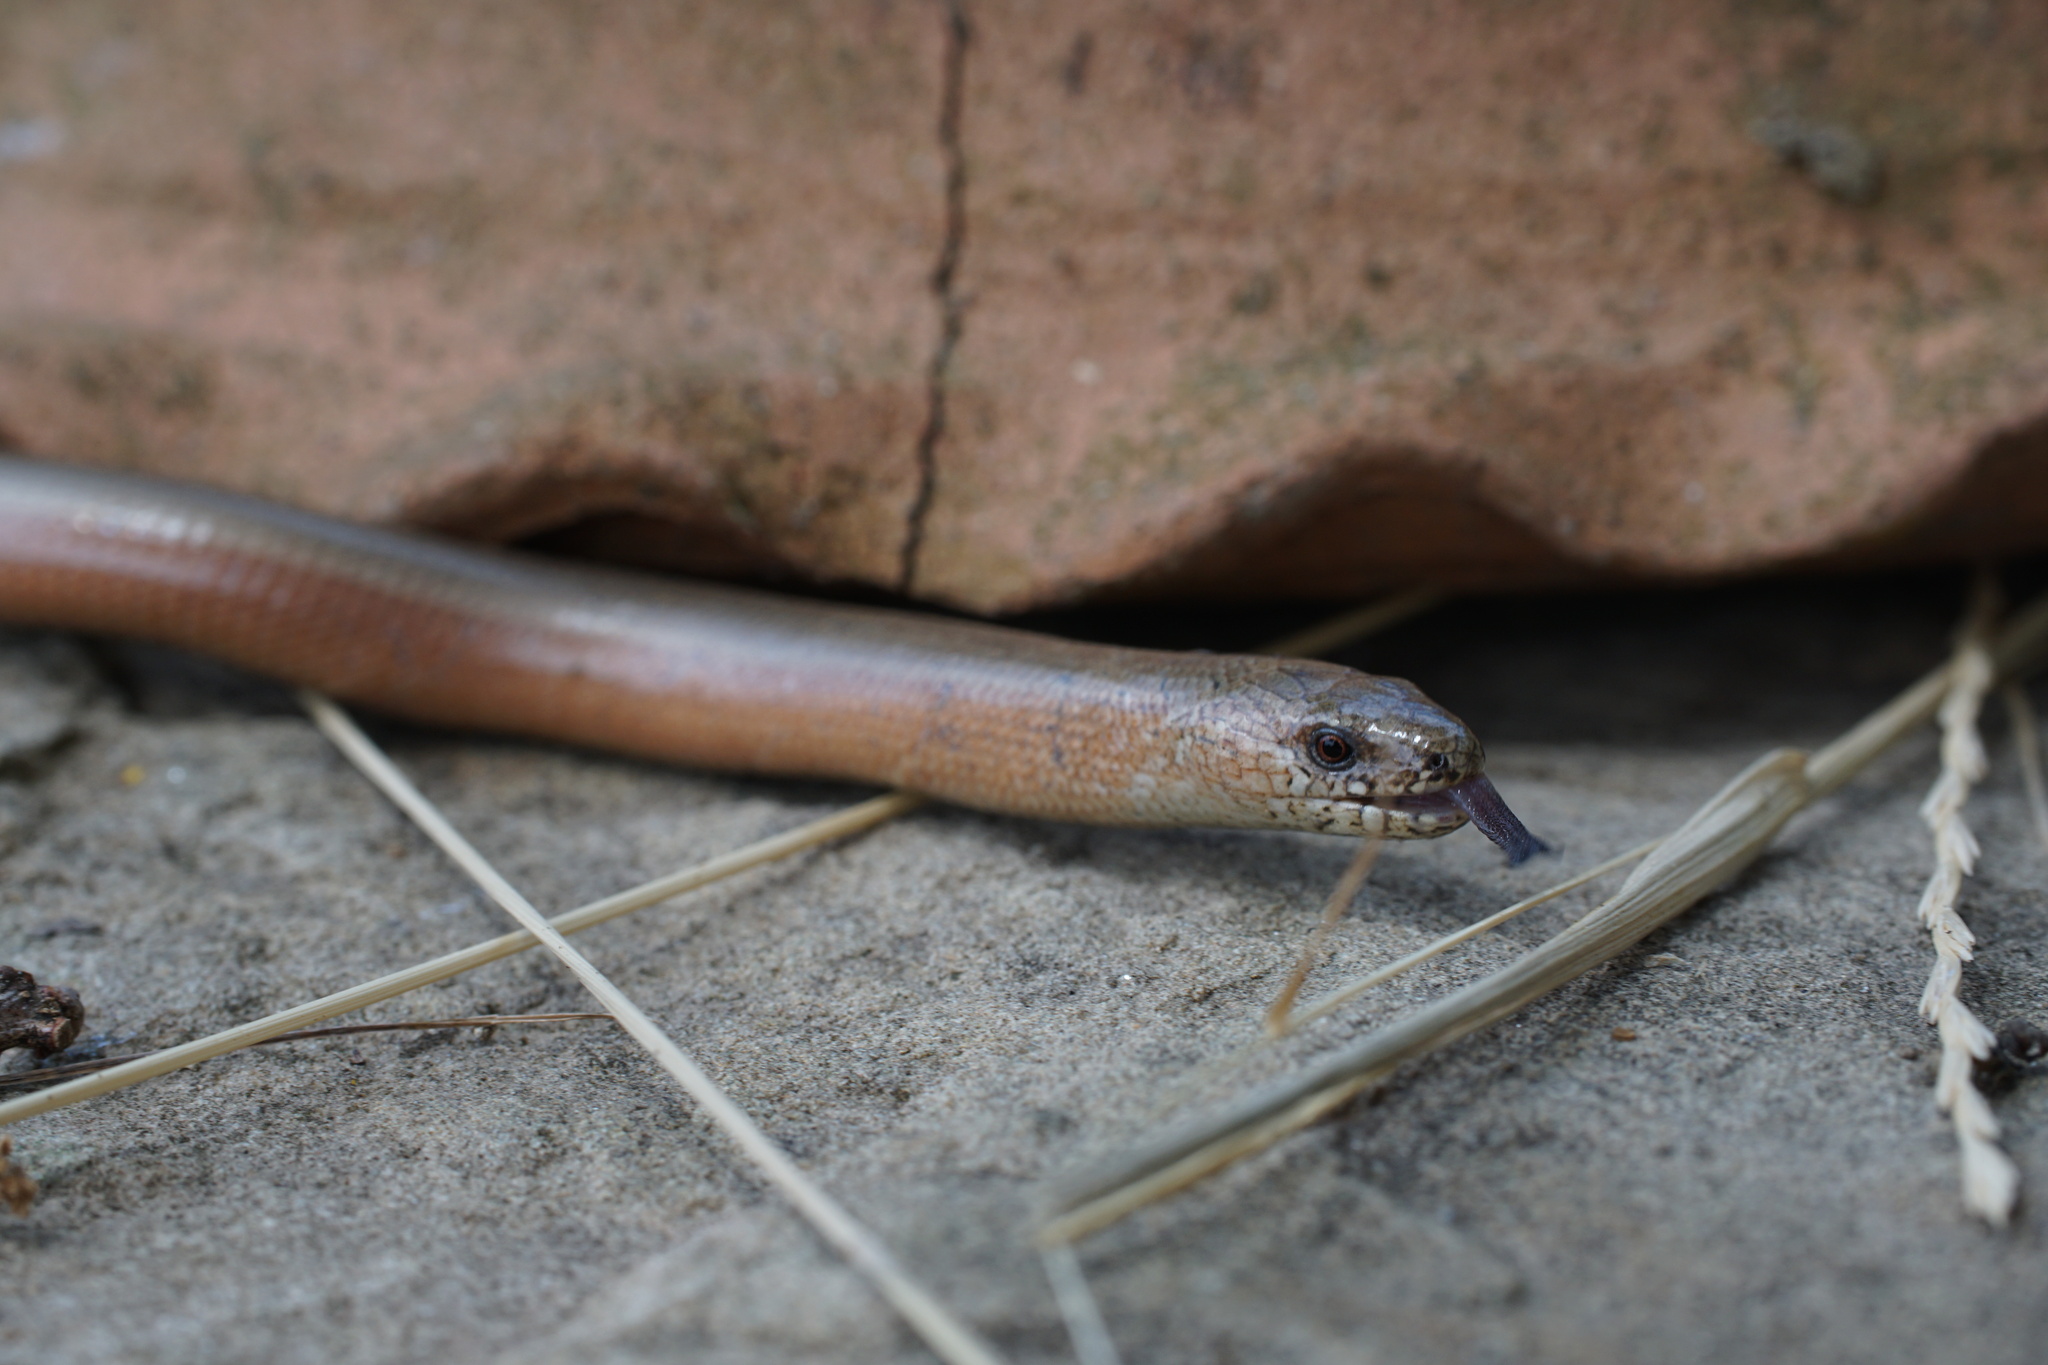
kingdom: Animalia
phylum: Chordata
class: Squamata
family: Anguidae
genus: Anguis
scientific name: Anguis fragilis
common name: Slow worm
